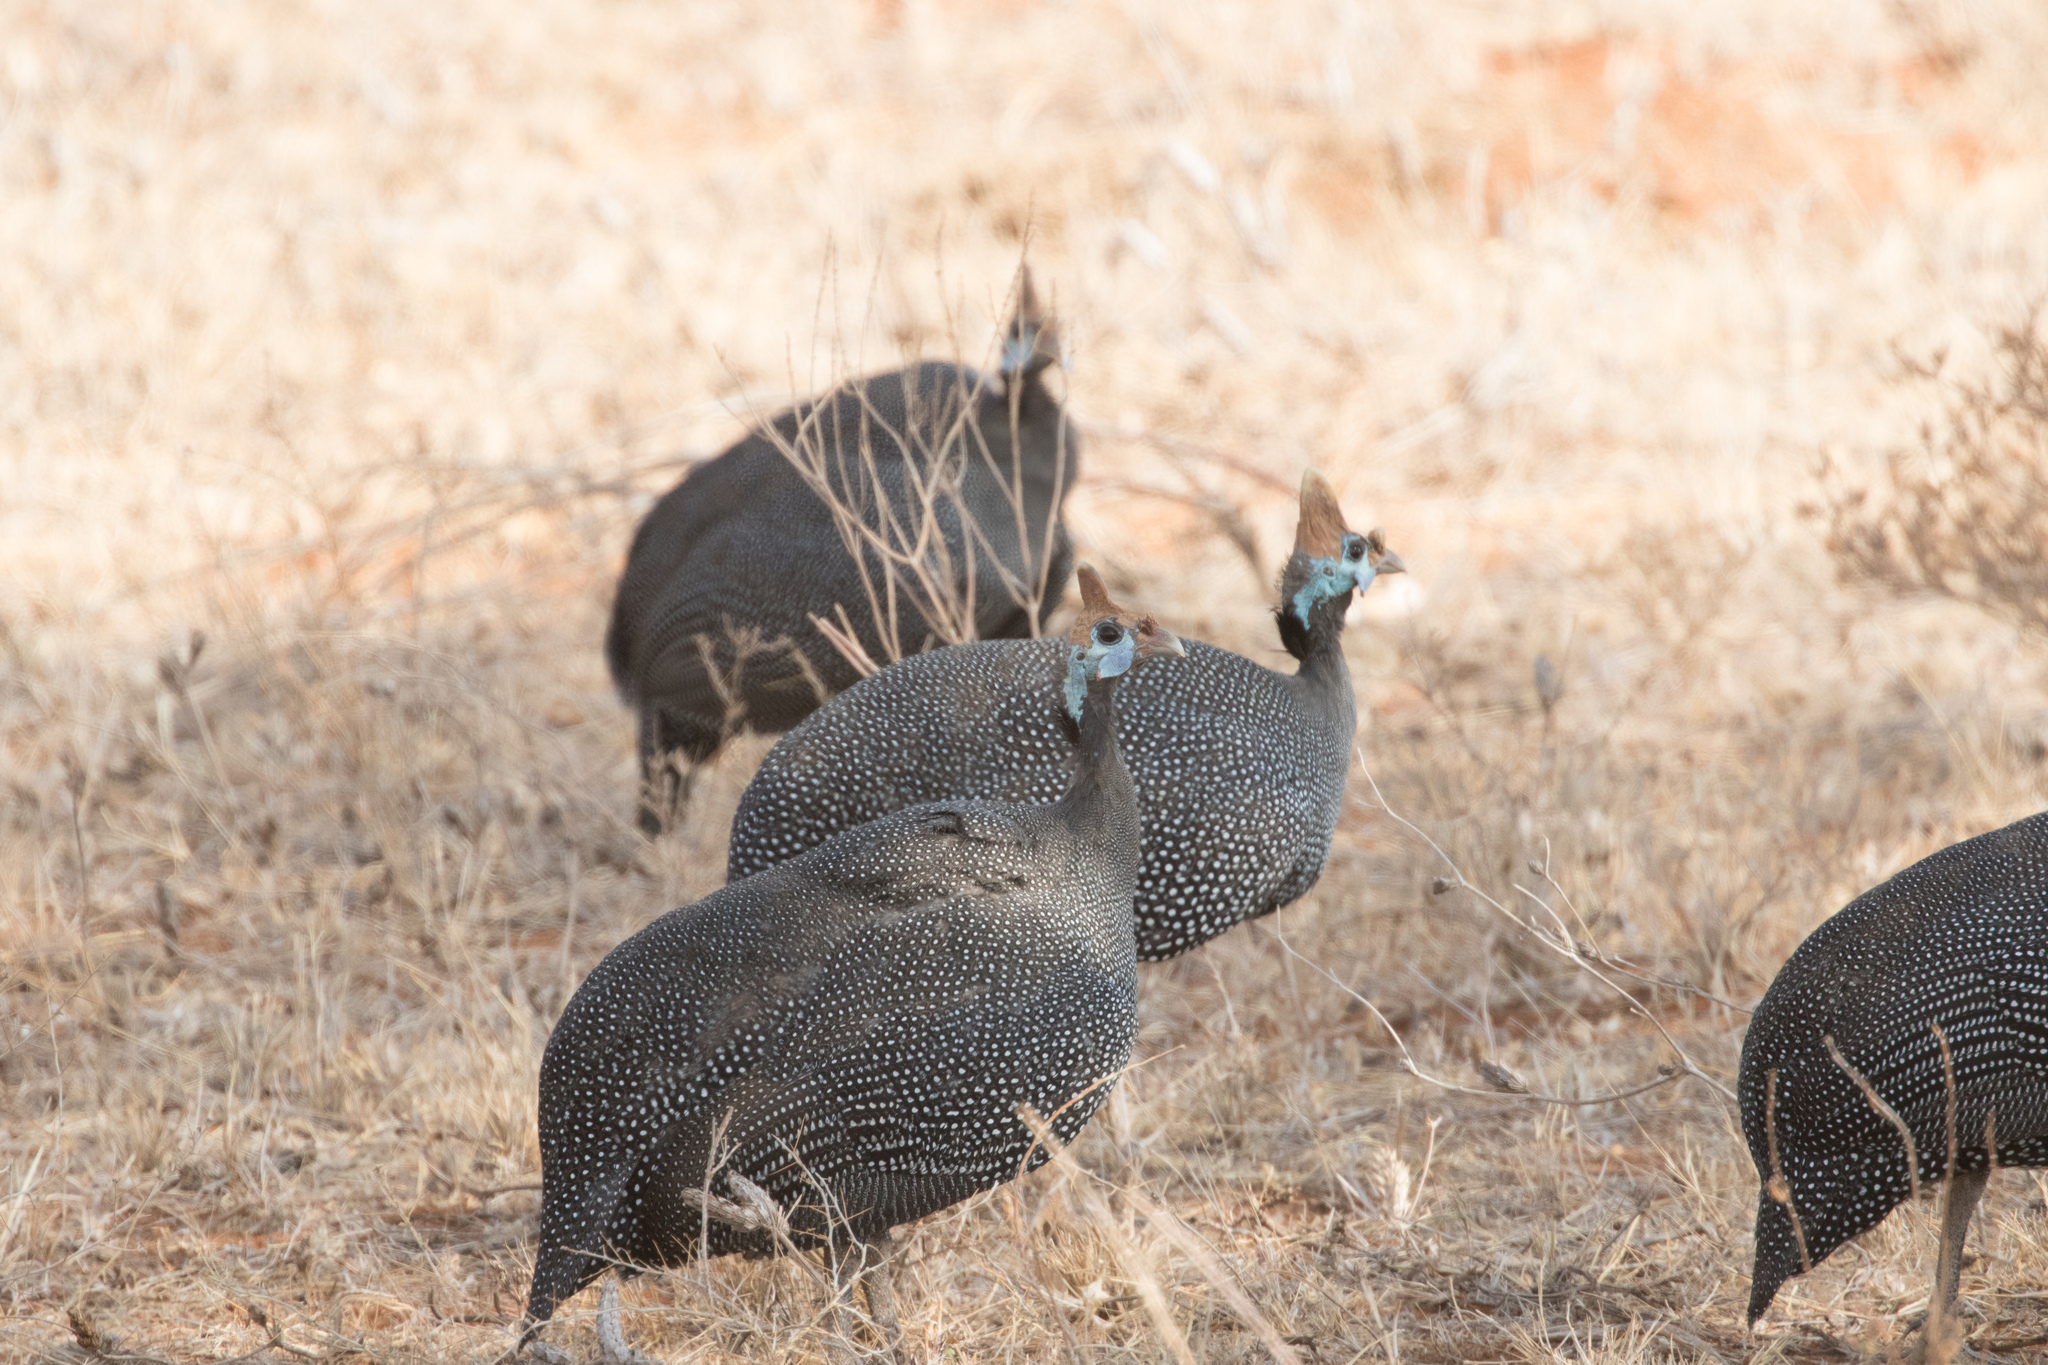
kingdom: Animalia
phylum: Chordata
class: Aves
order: Galliformes
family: Numididae
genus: Numida
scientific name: Numida meleagris
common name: Helmeted guineafowl
